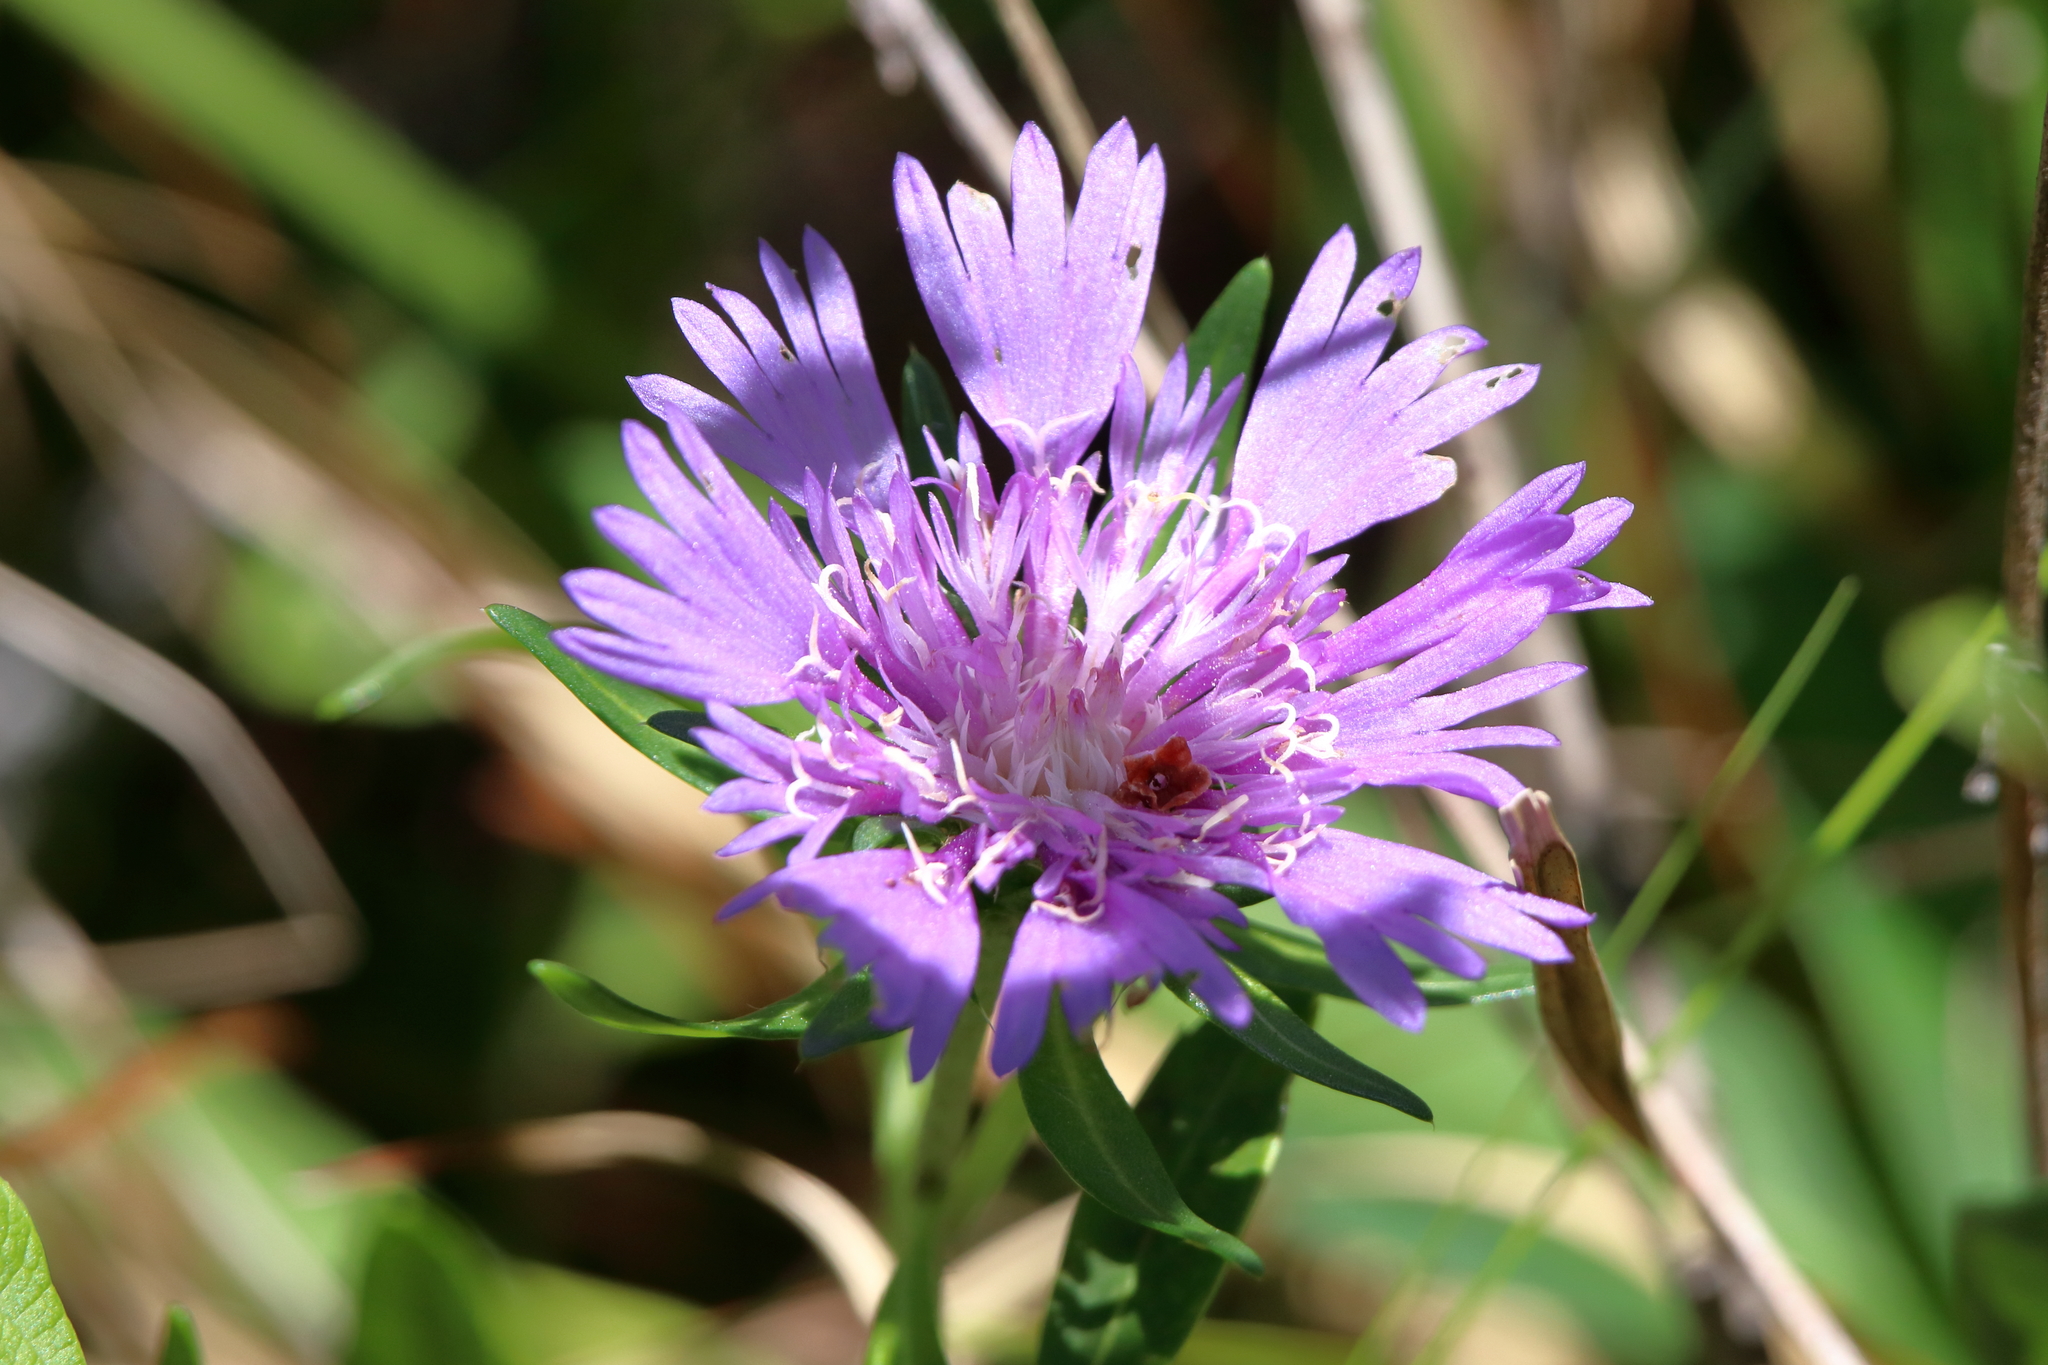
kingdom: Plantae
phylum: Tracheophyta
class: Magnoliopsida
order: Asterales
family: Asteraceae
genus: Stokesia
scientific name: Stokesia laevis
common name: Stokes'-aster
